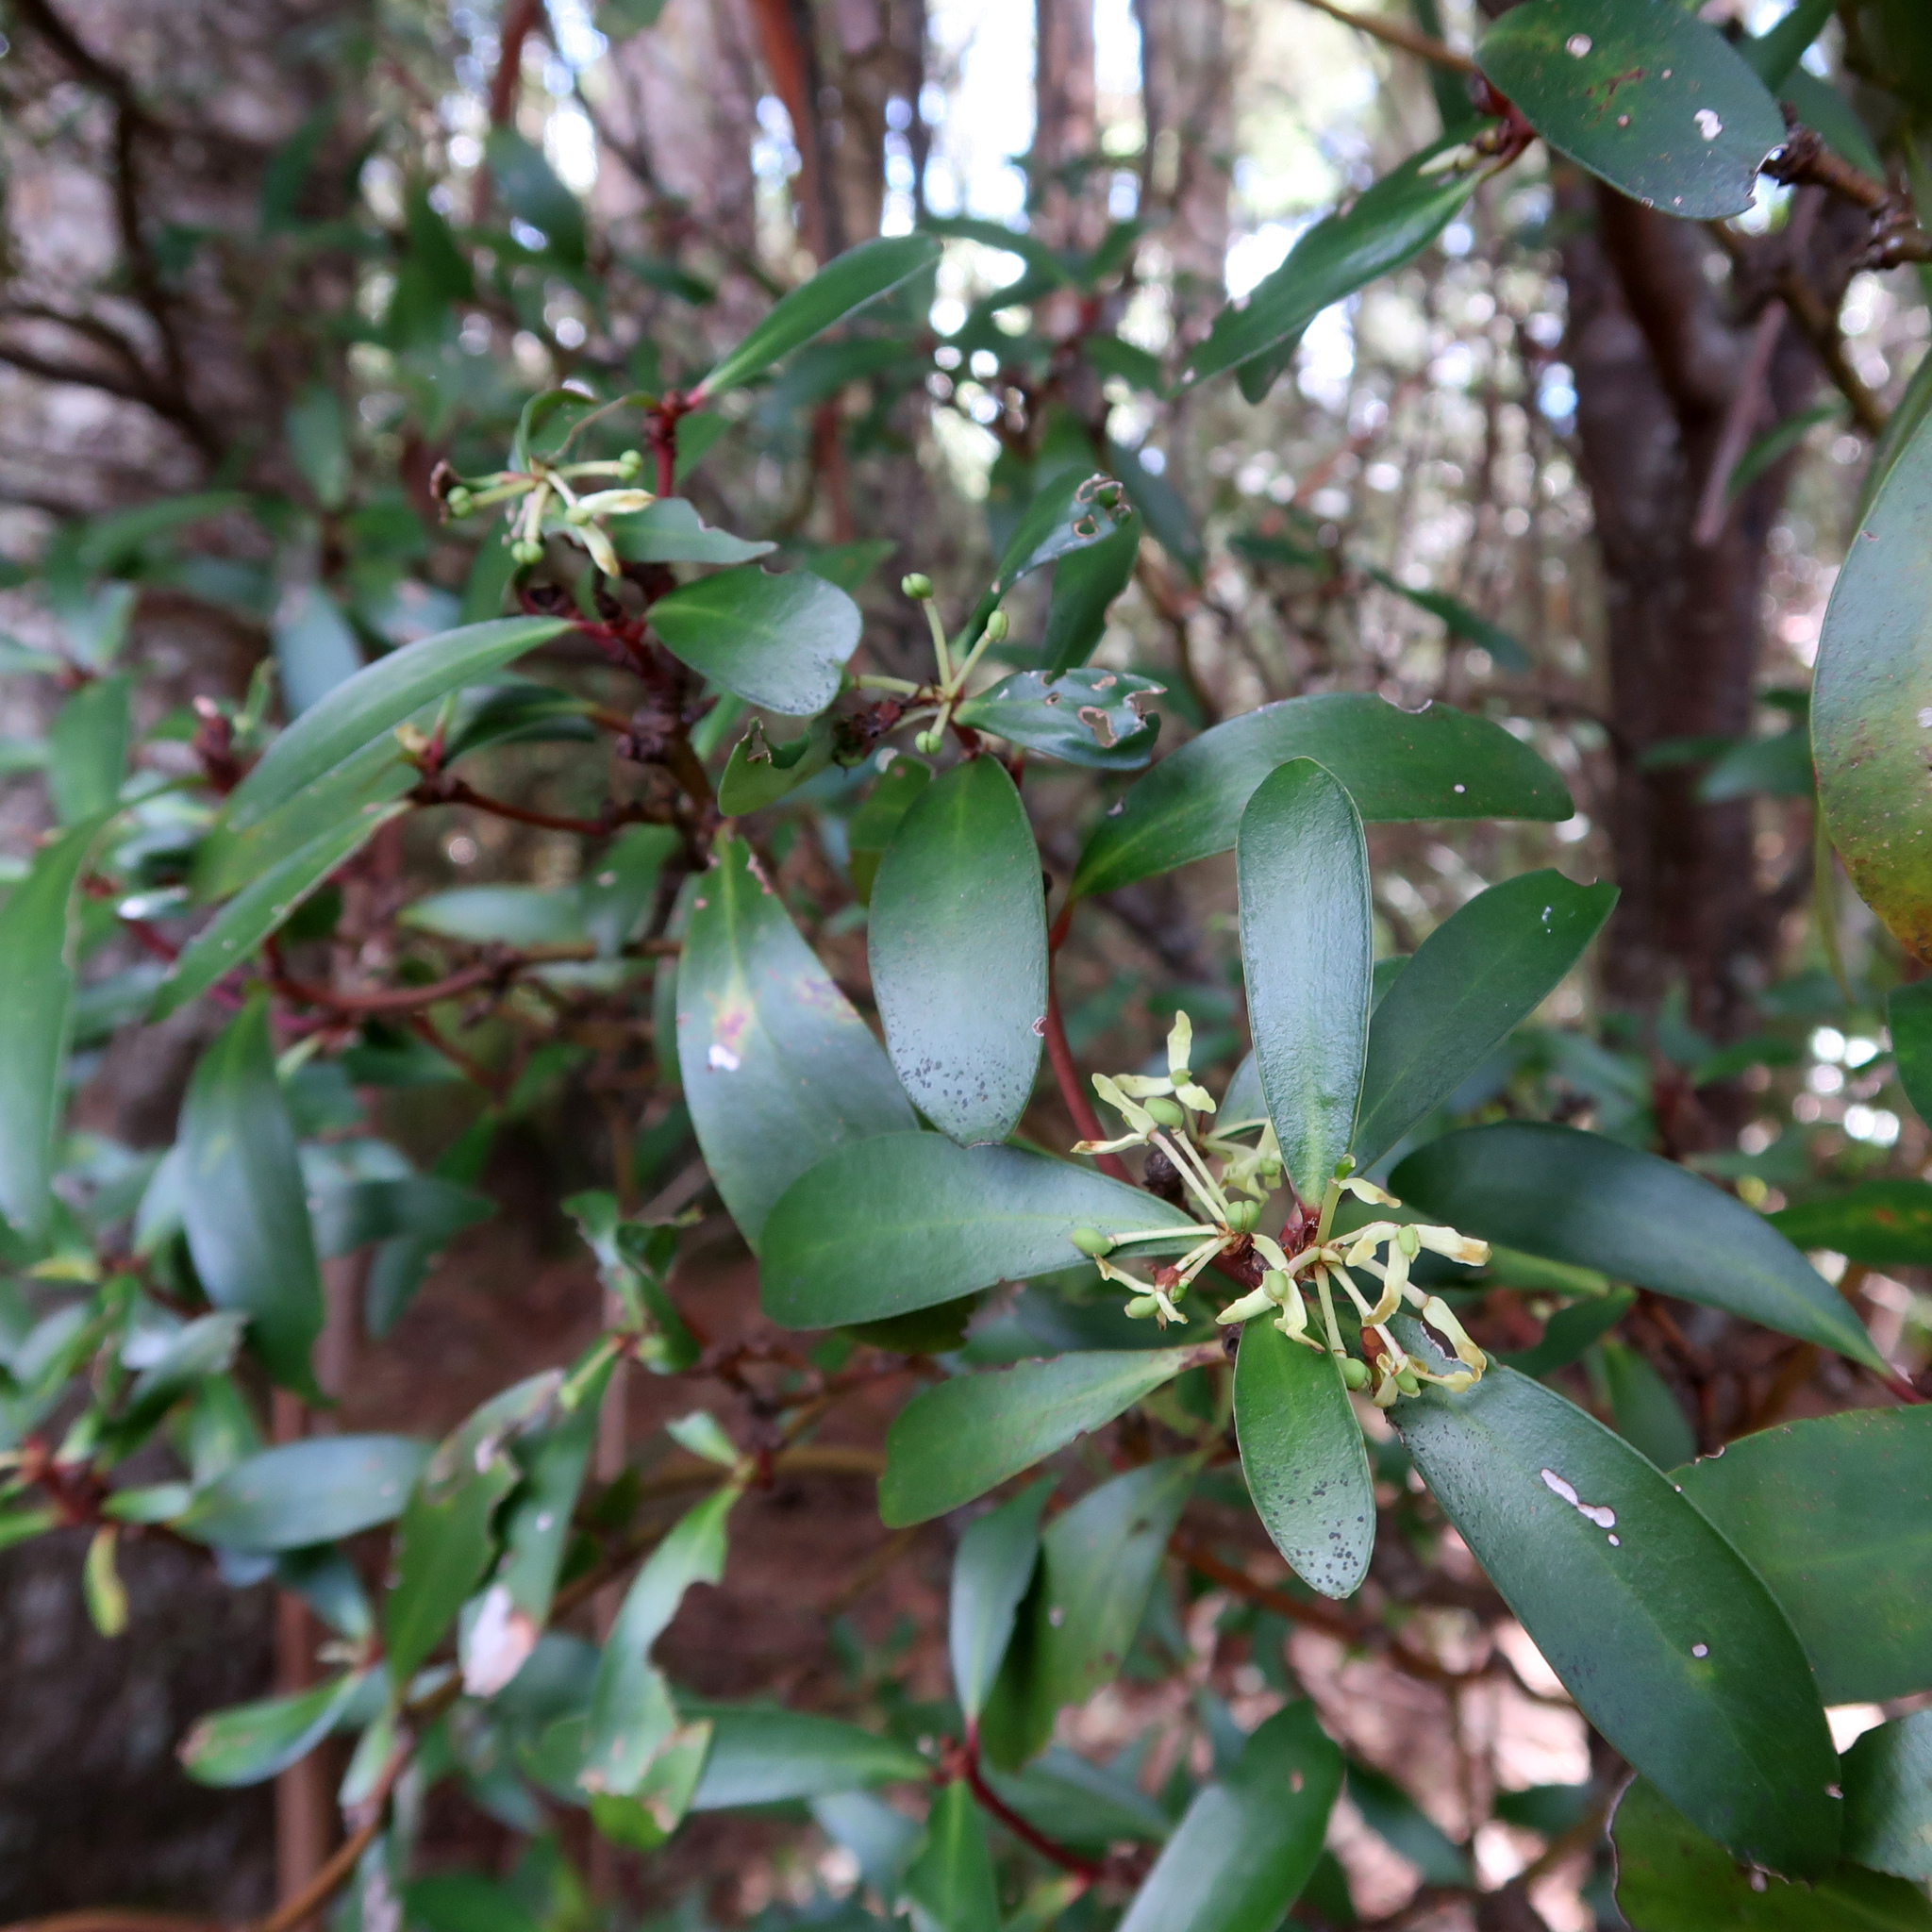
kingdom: Plantae
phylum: Tracheophyta
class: Magnoliopsida
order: Canellales
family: Winteraceae
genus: Drimys
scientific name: Drimys aromatica
